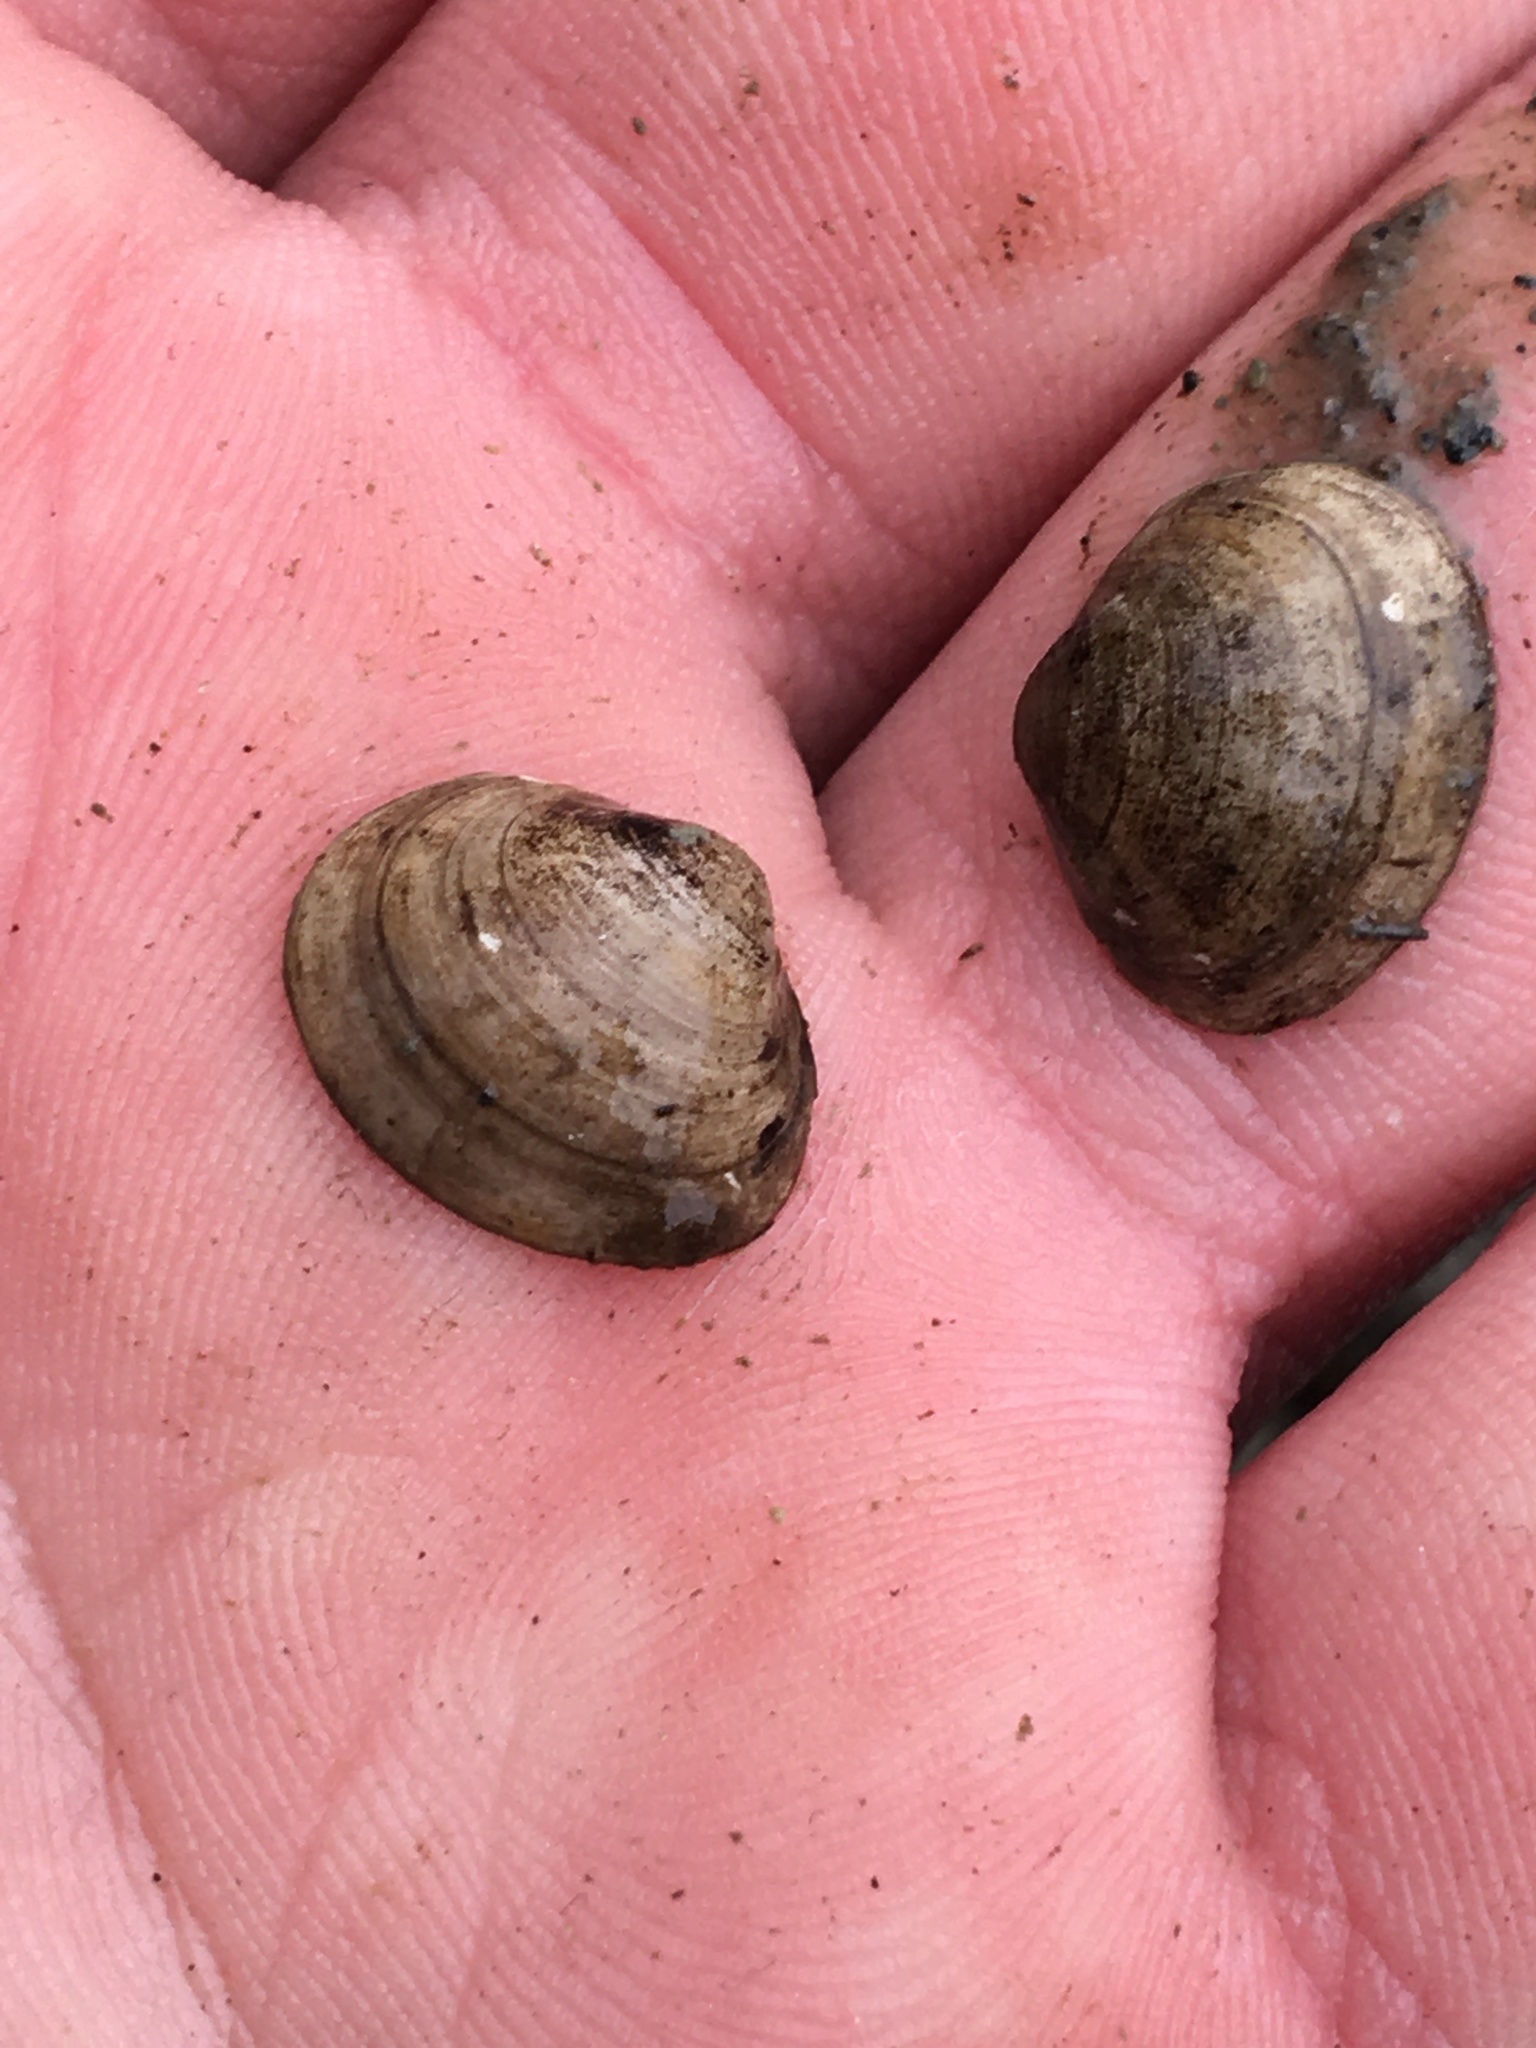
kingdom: Animalia
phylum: Mollusca
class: Bivalvia
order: Sphaeriida
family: Sphaeriidae
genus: Sphaerium
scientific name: Sphaerium striatinum
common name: Striated fingernailclam
